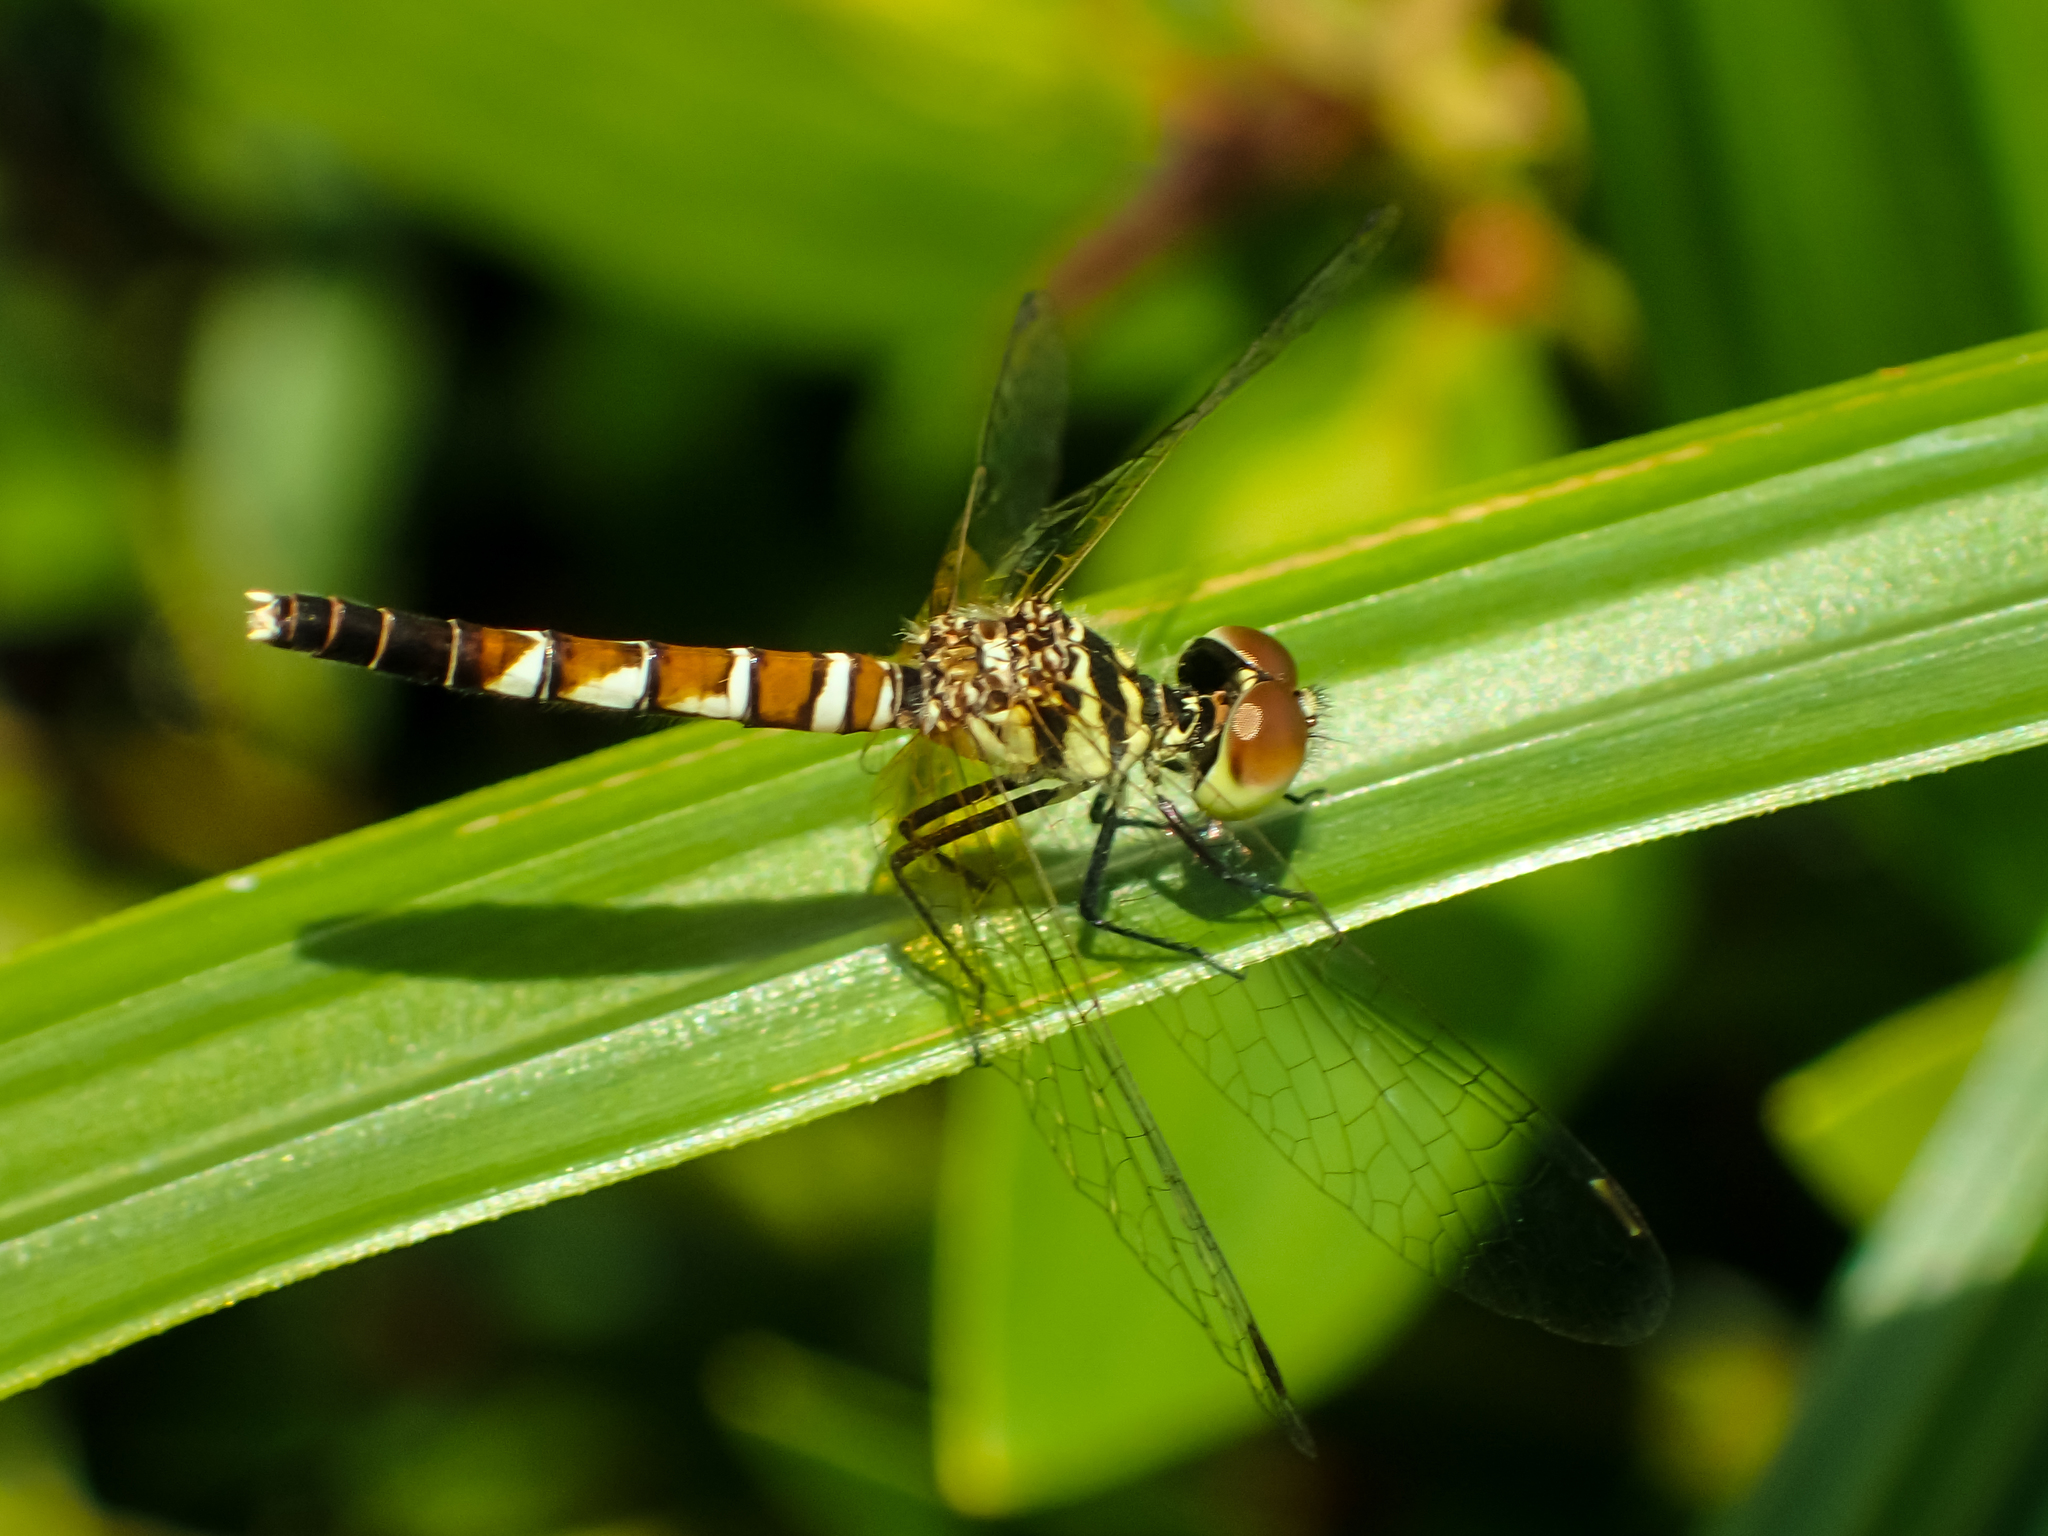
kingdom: Animalia
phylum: Arthropoda
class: Insecta
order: Odonata
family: Libellulidae
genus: Nannophya
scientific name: Nannophya pygmaea
